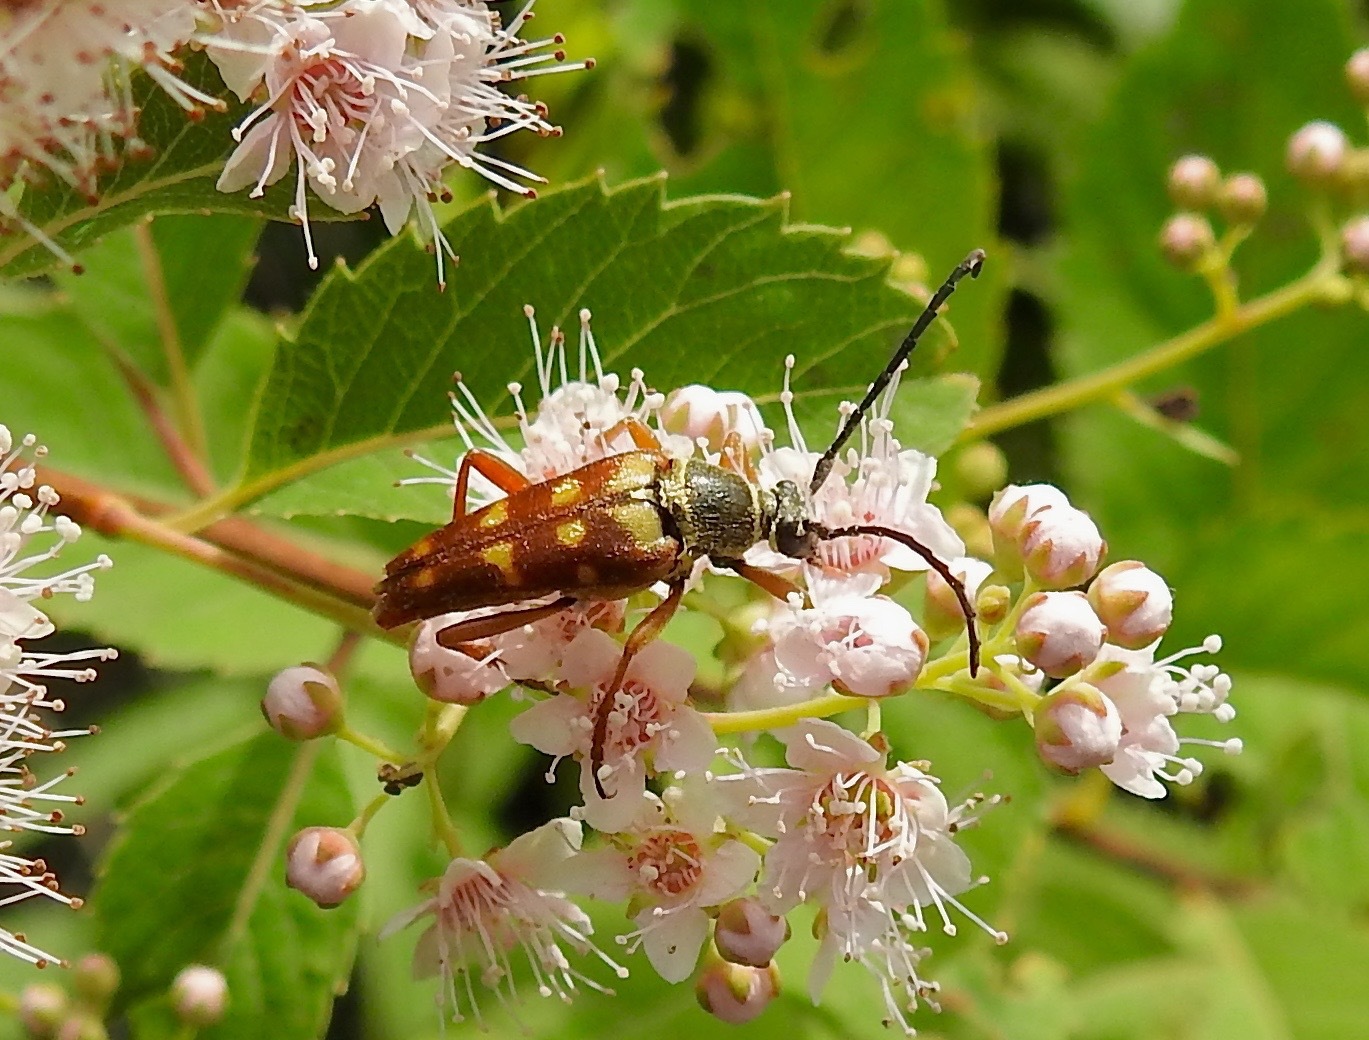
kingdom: Animalia
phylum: Arthropoda
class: Insecta
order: Coleoptera
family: Cerambycidae
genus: Typocerus
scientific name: Typocerus velutinus
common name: Banded longhorn beetle
